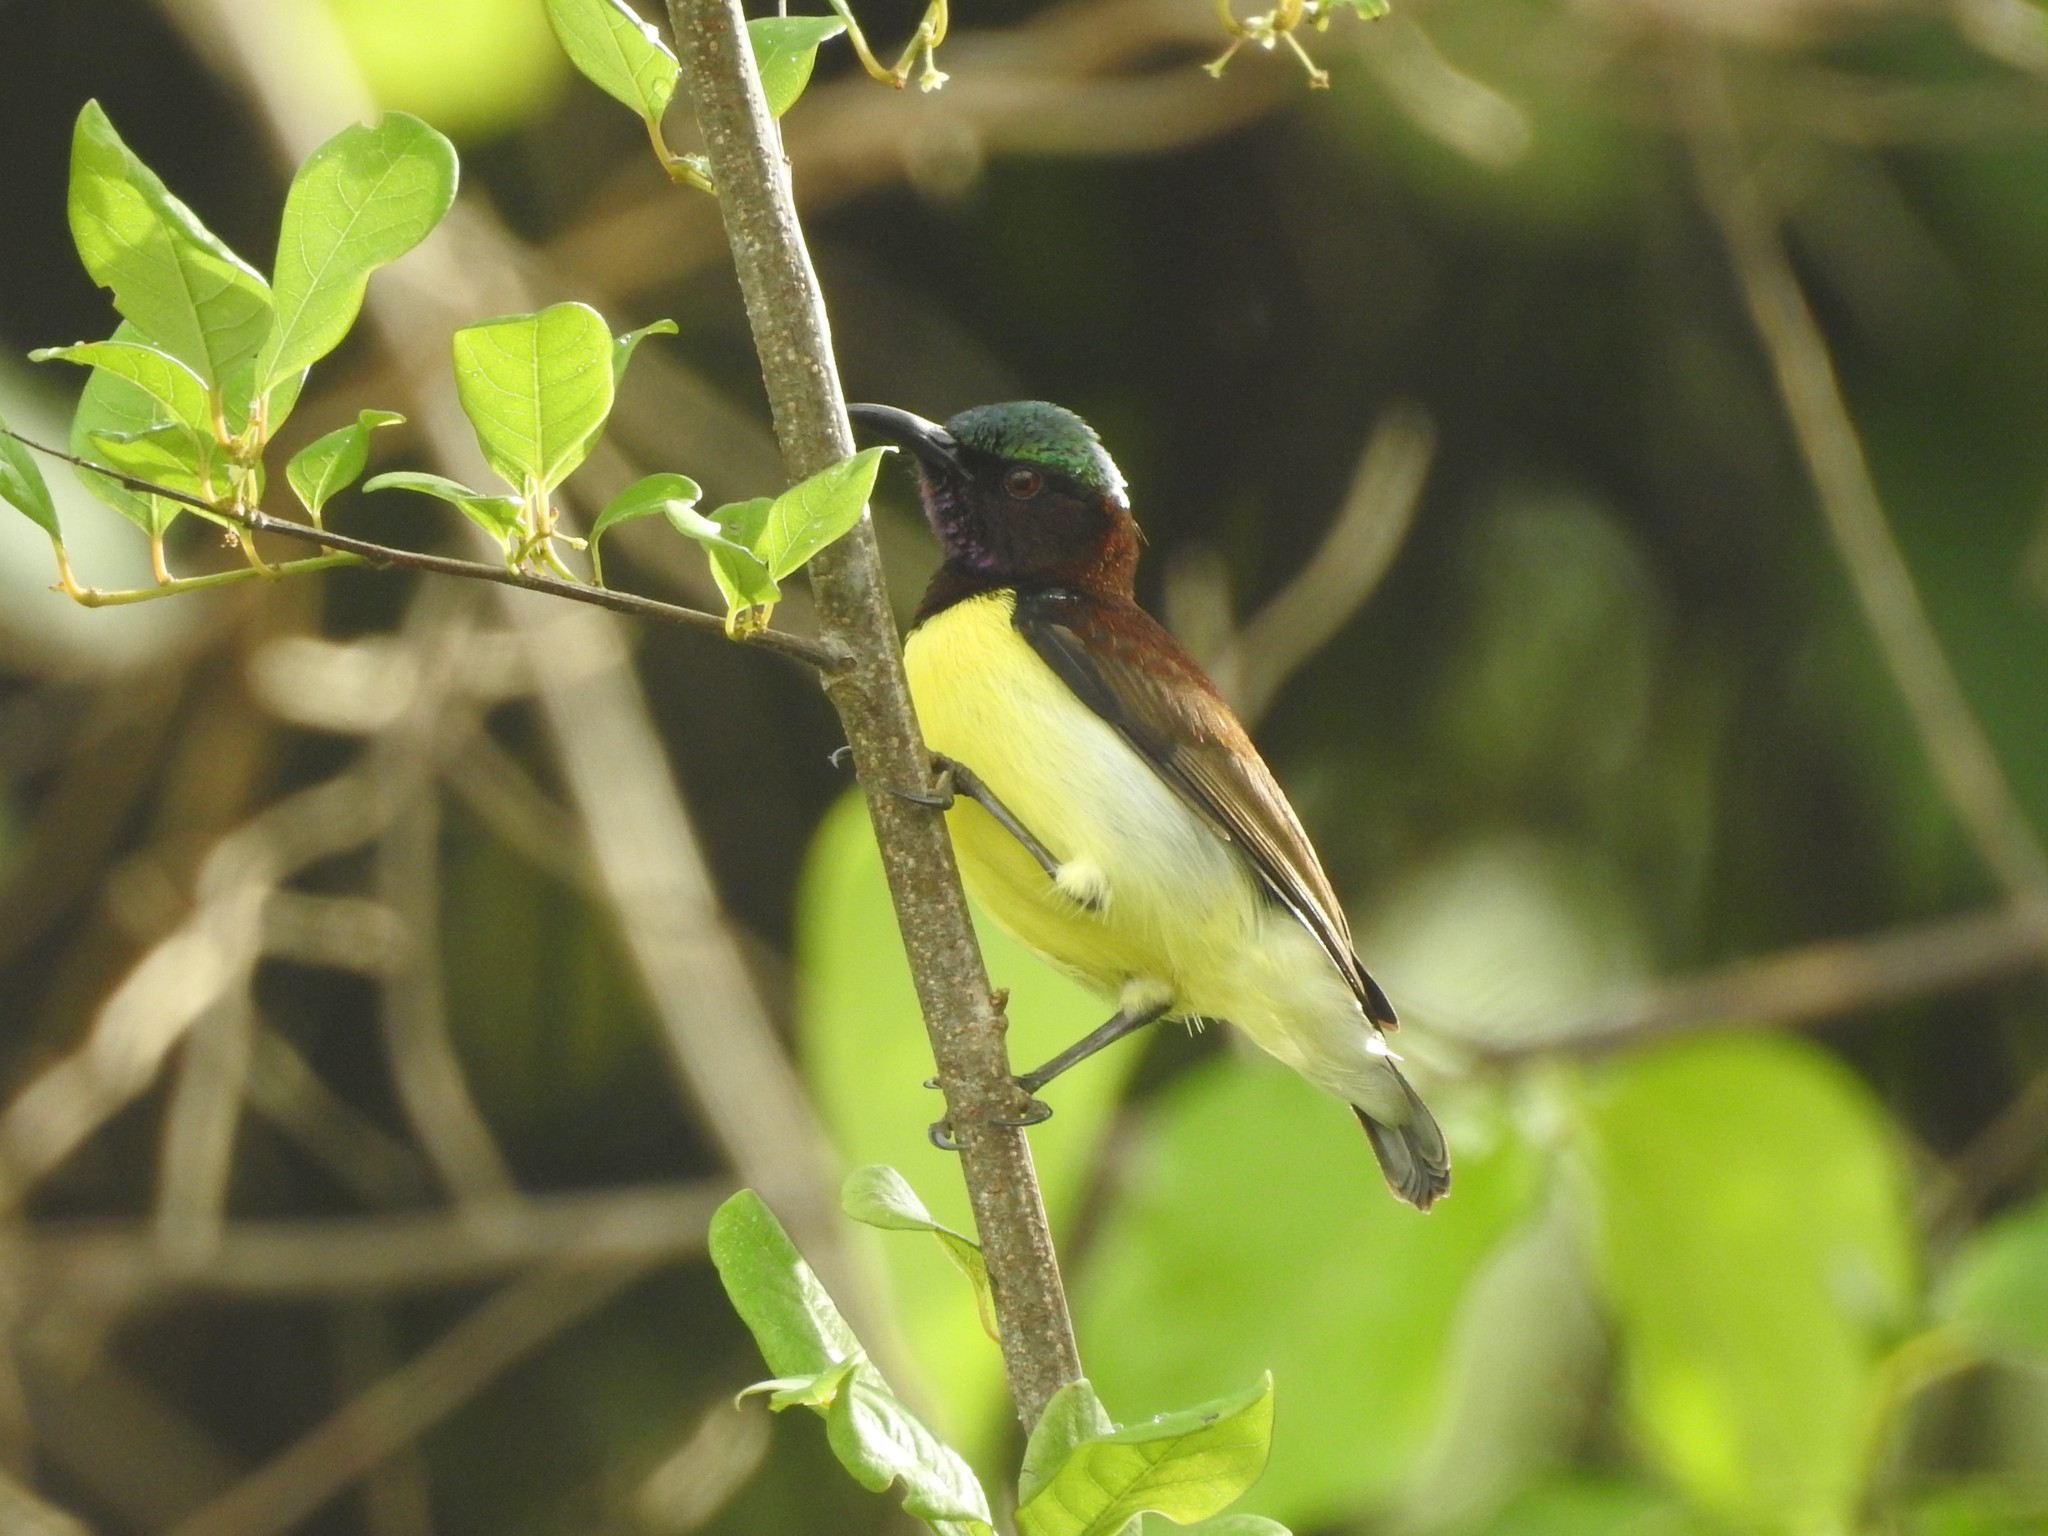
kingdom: Animalia
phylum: Chordata
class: Aves
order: Passeriformes
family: Nectariniidae
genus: Leptocoma
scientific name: Leptocoma zeylonica
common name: Purple-rumped sunbird
